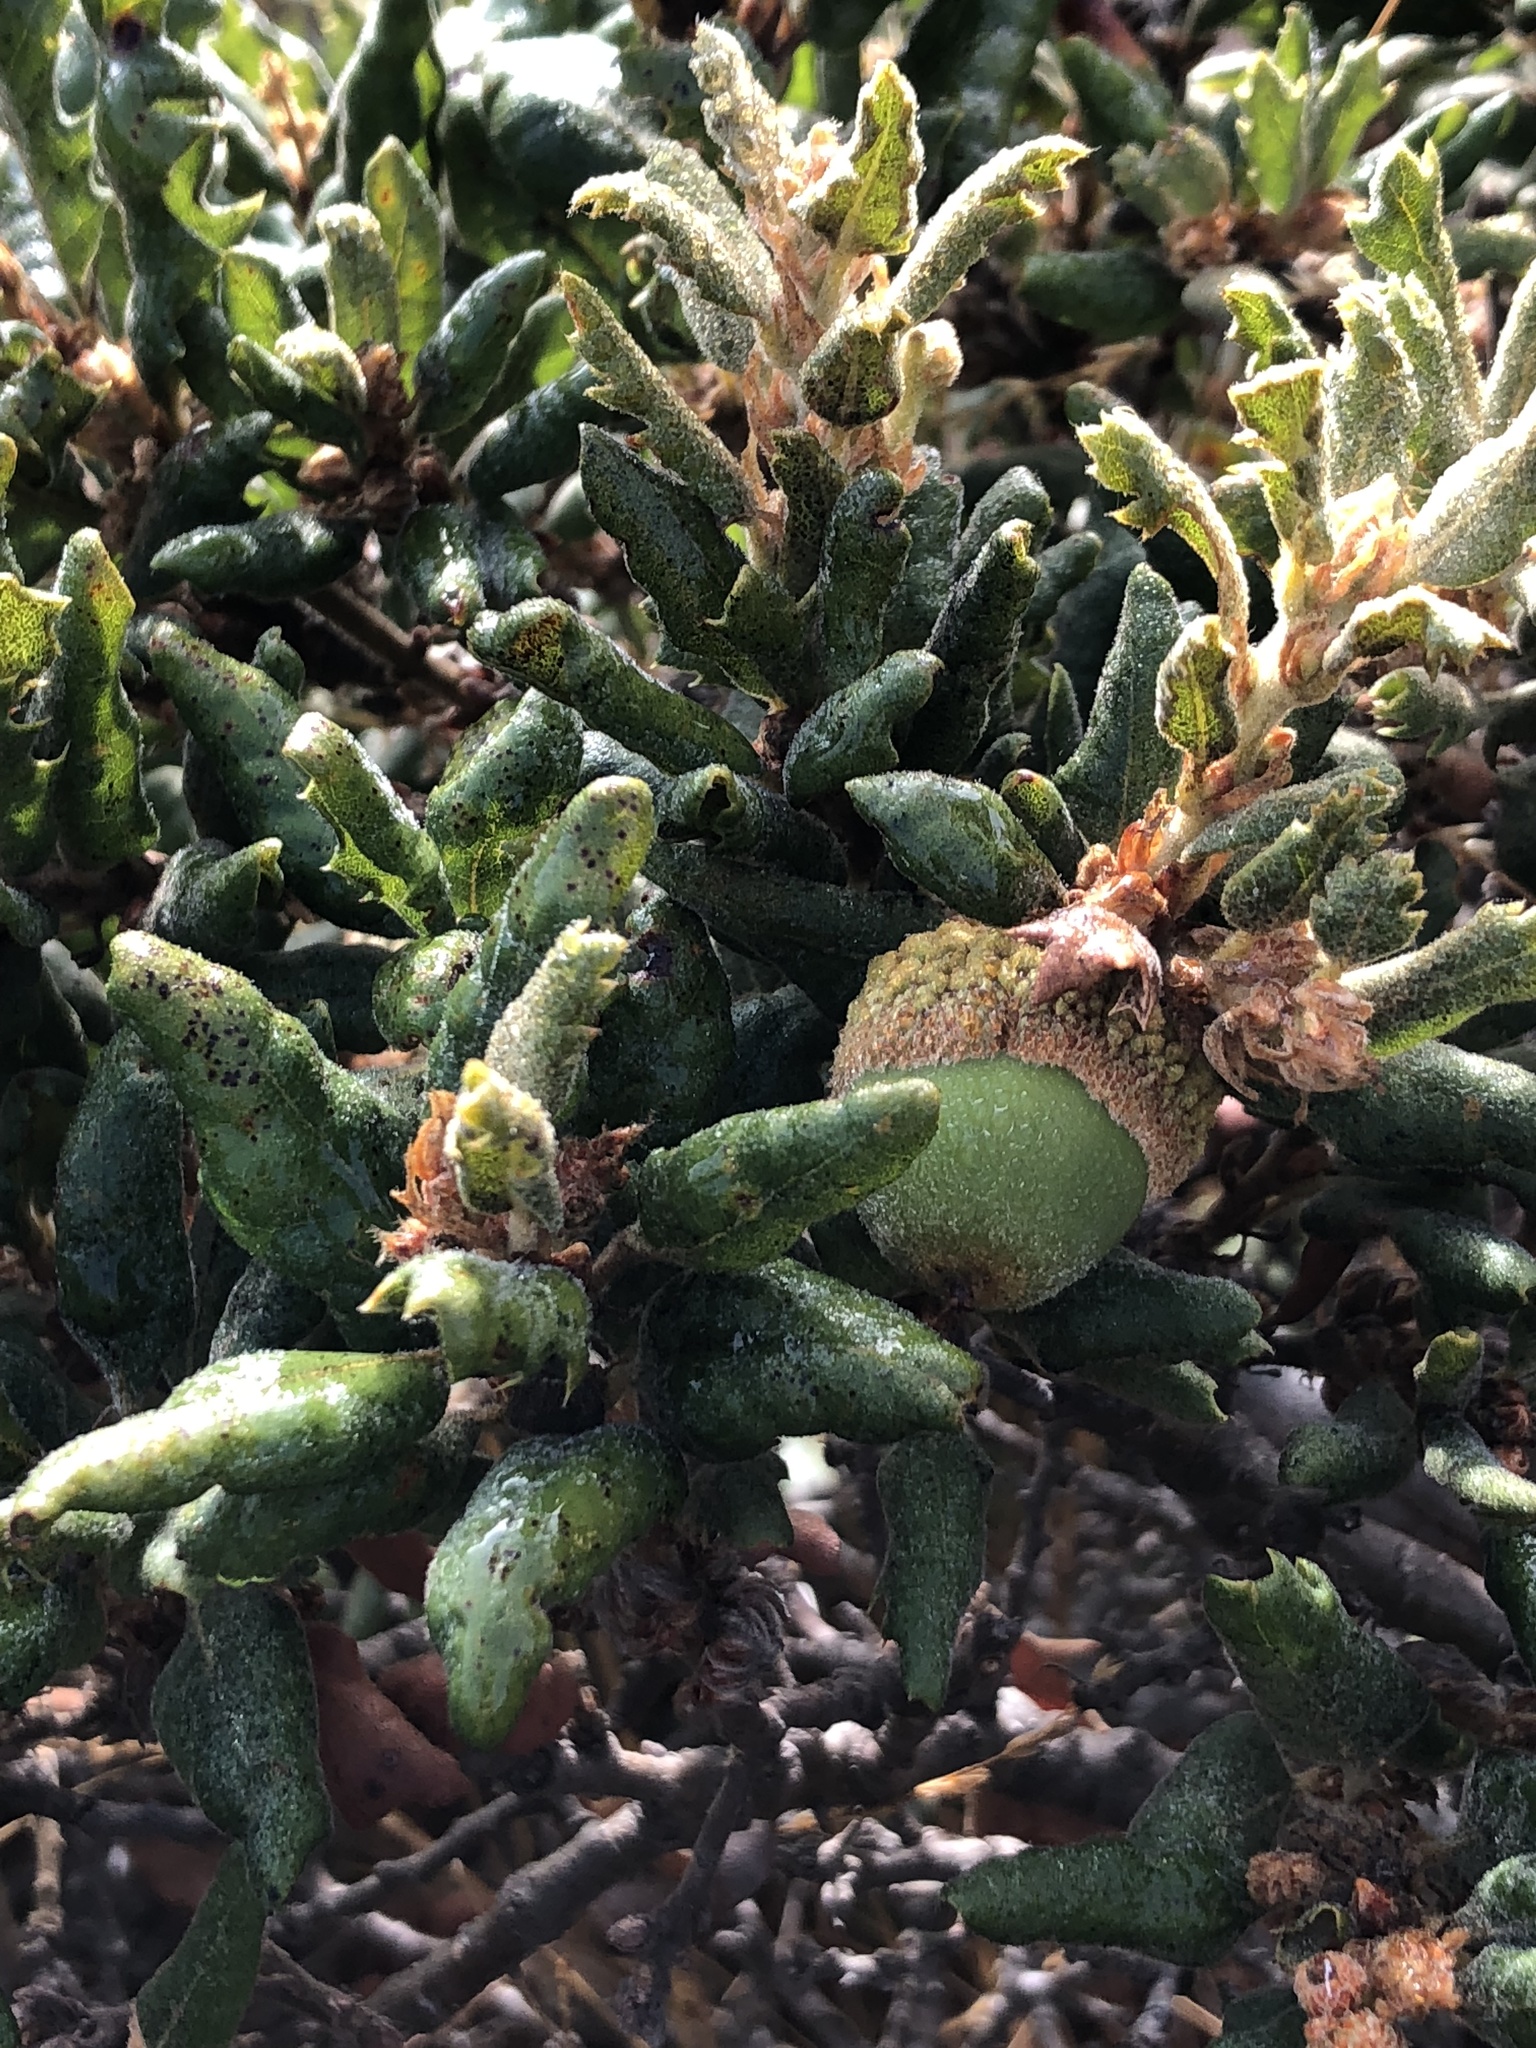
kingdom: Plantae
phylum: Tracheophyta
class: Magnoliopsida
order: Fagales
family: Fagaceae
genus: Quercus
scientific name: Quercus durata
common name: Leather oak
